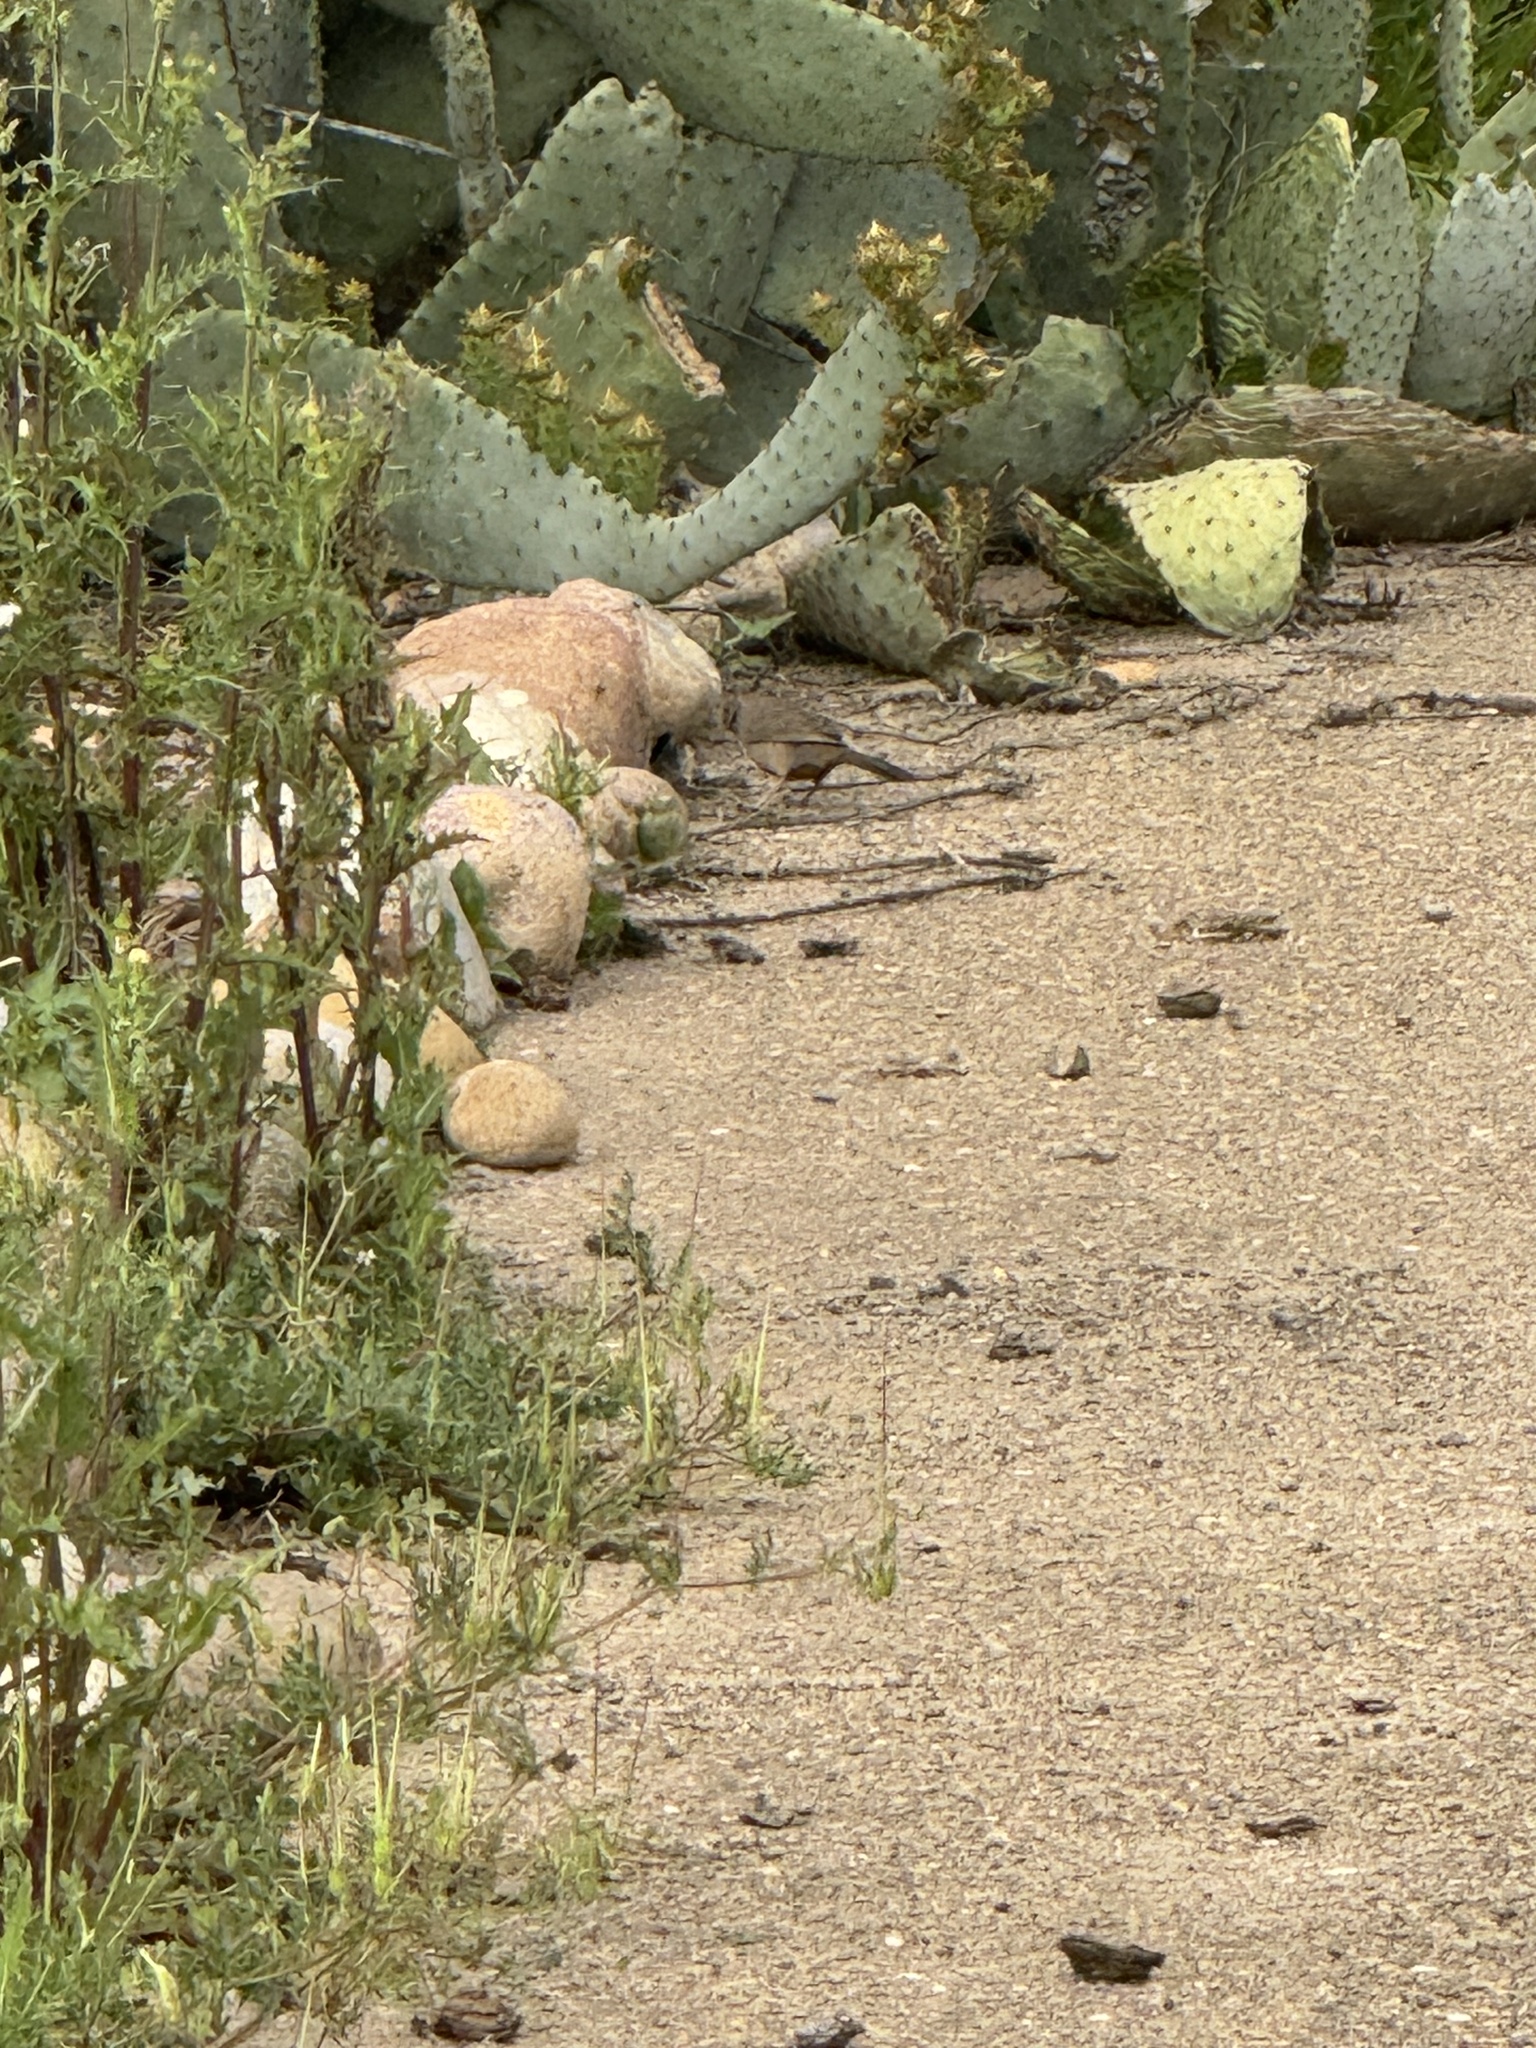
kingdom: Animalia
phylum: Chordata
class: Aves
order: Passeriformes
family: Passerellidae
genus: Melozone
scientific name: Melozone crissalis
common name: California towhee
